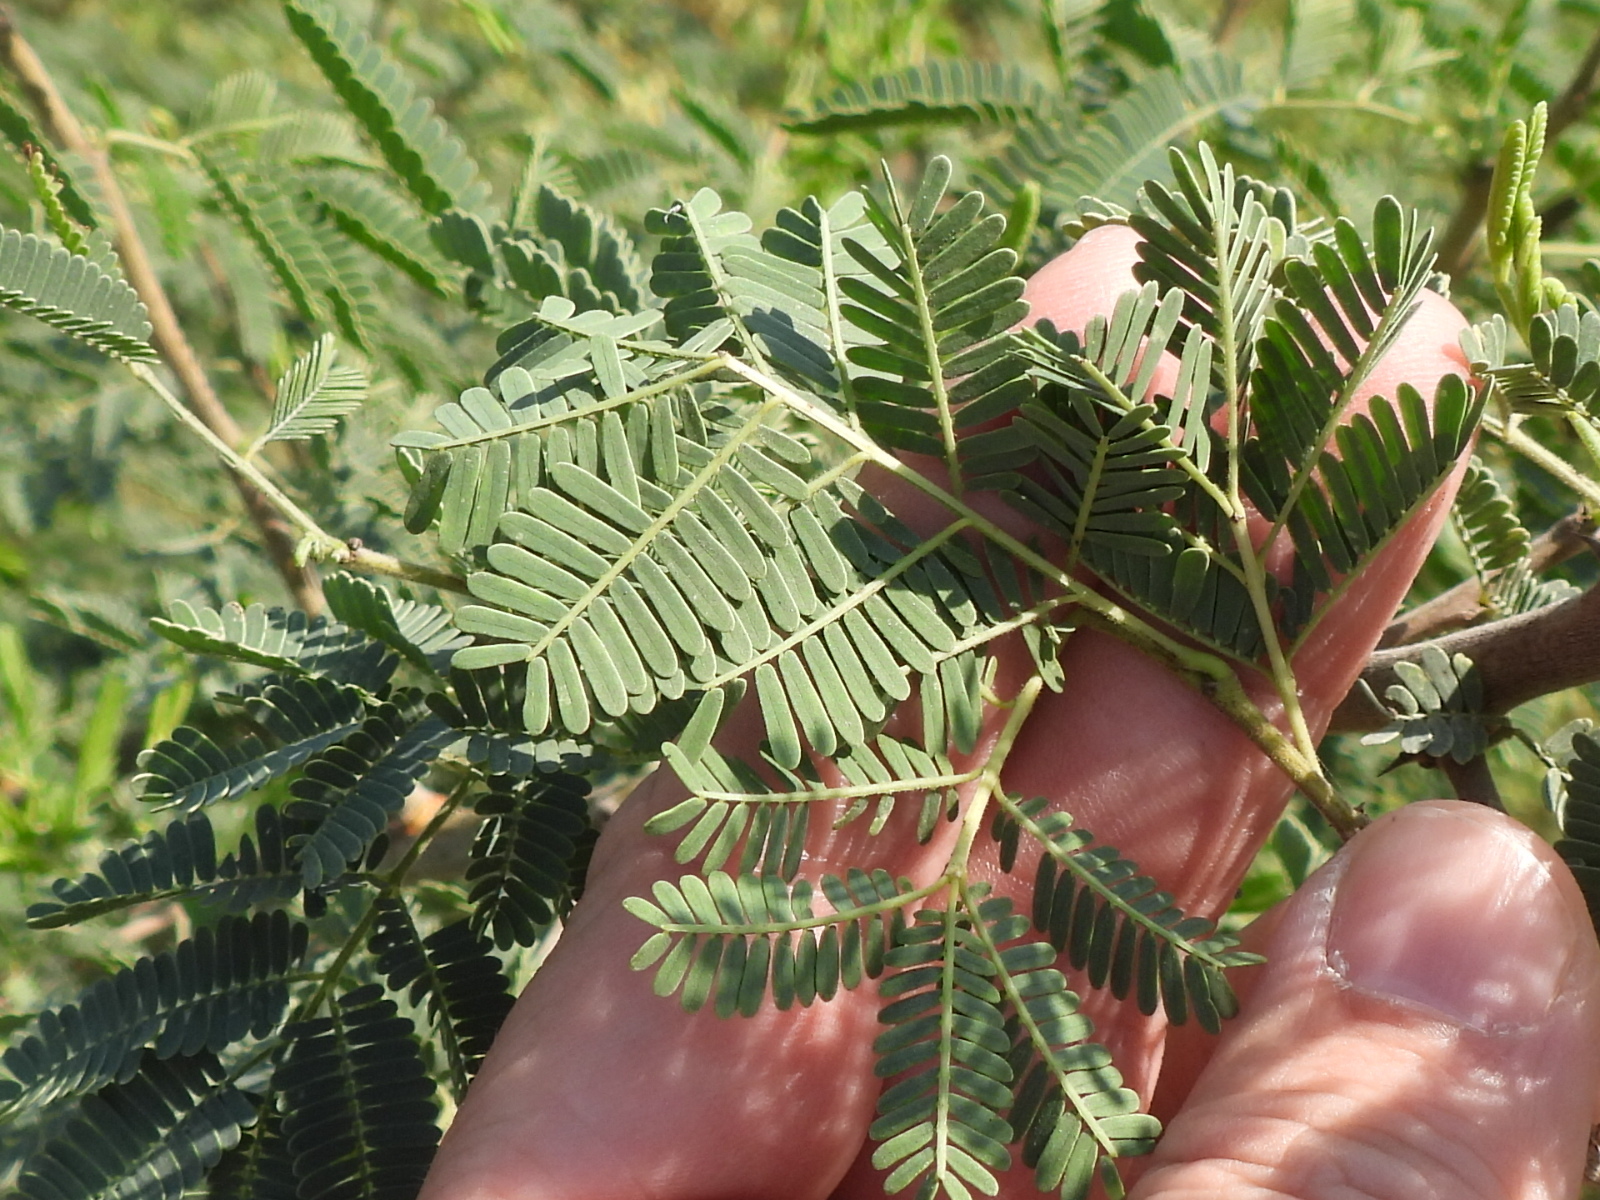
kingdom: Plantae
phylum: Tracheophyta
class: Magnoliopsida
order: Fabales
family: Fabaceae
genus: Vachellia
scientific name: Vachellia nilotica
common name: Arabic gumtree
